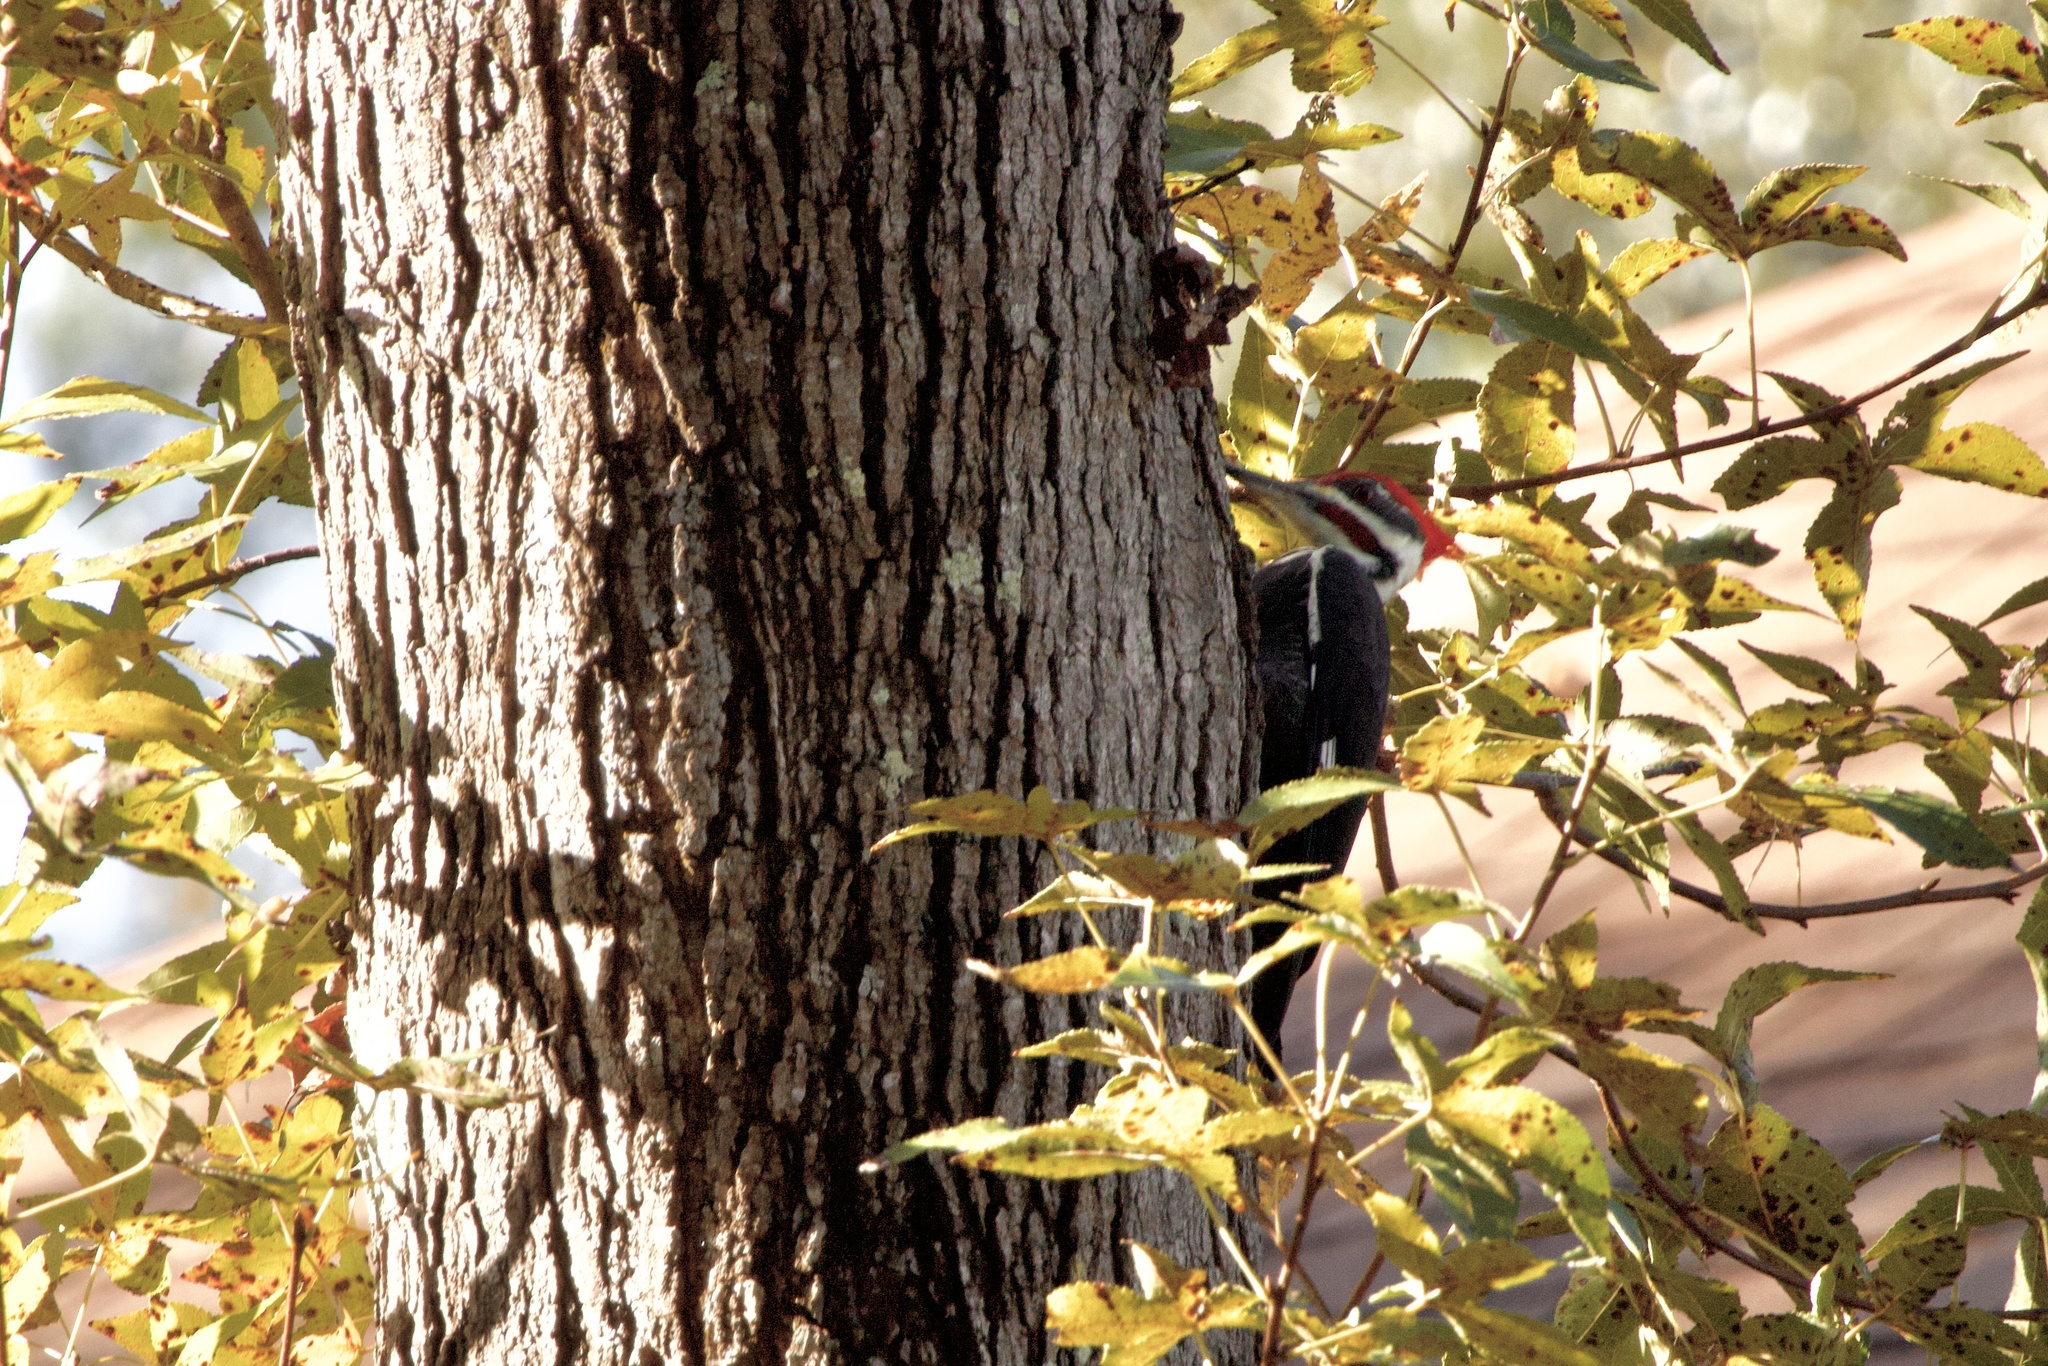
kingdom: Animalia
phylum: Chordata
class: Aves
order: Piciformes
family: Picidae
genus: Dryocopus
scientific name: Dryocopus pileatus
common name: Pileated woodpecker
